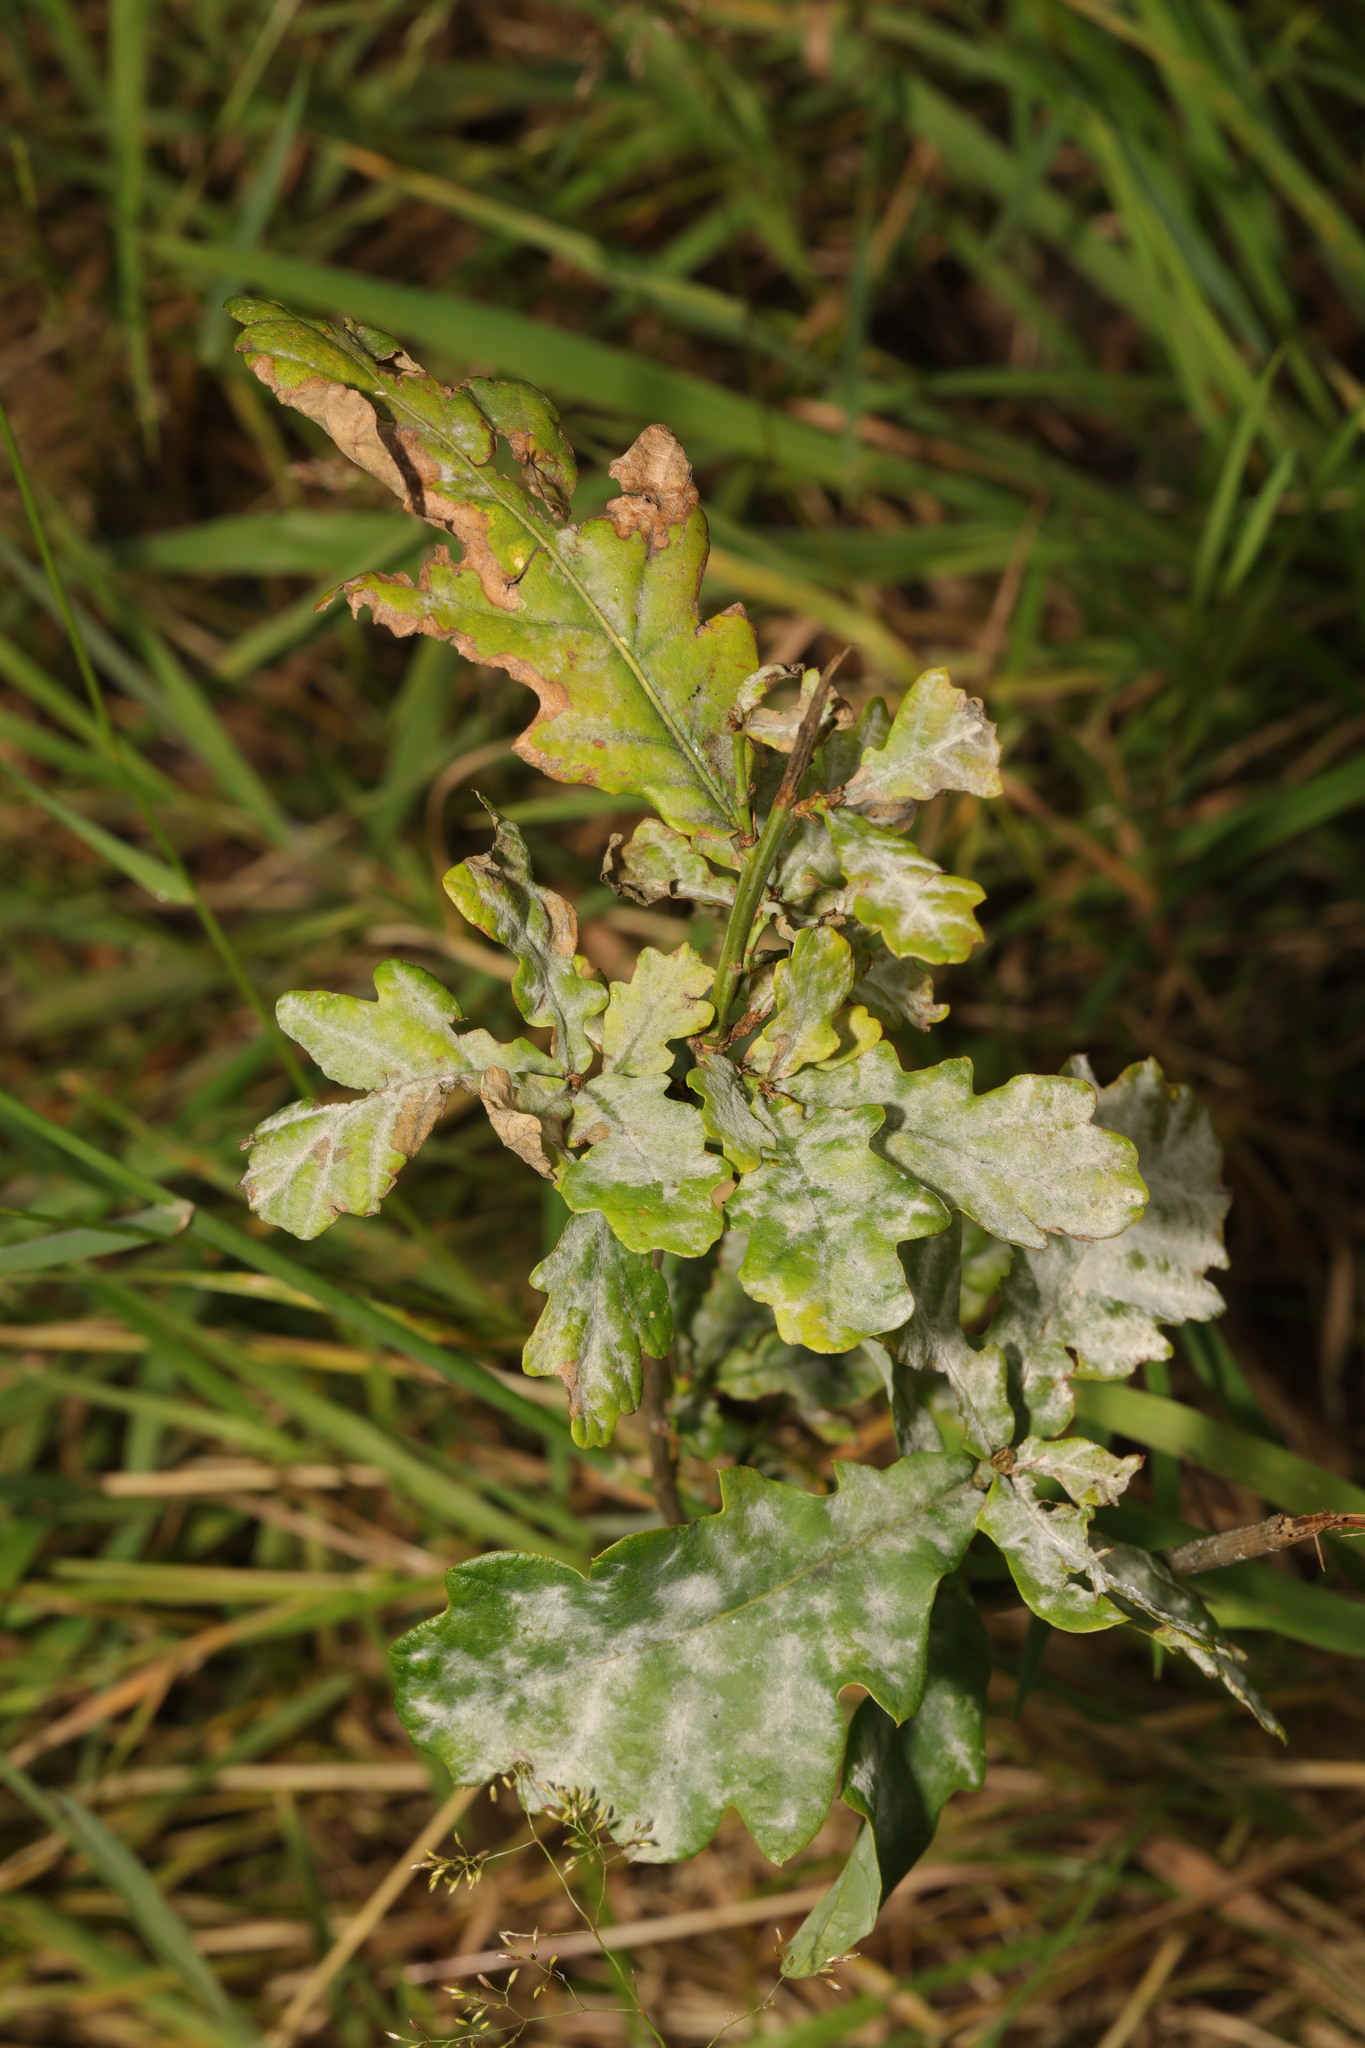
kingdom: Fungi
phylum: Ascomycota
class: Leotiomycetes
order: Helotiales
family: Erysiphaceae
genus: Erysiphe
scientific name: Erysiphe alphitoides
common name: Oak mildew
